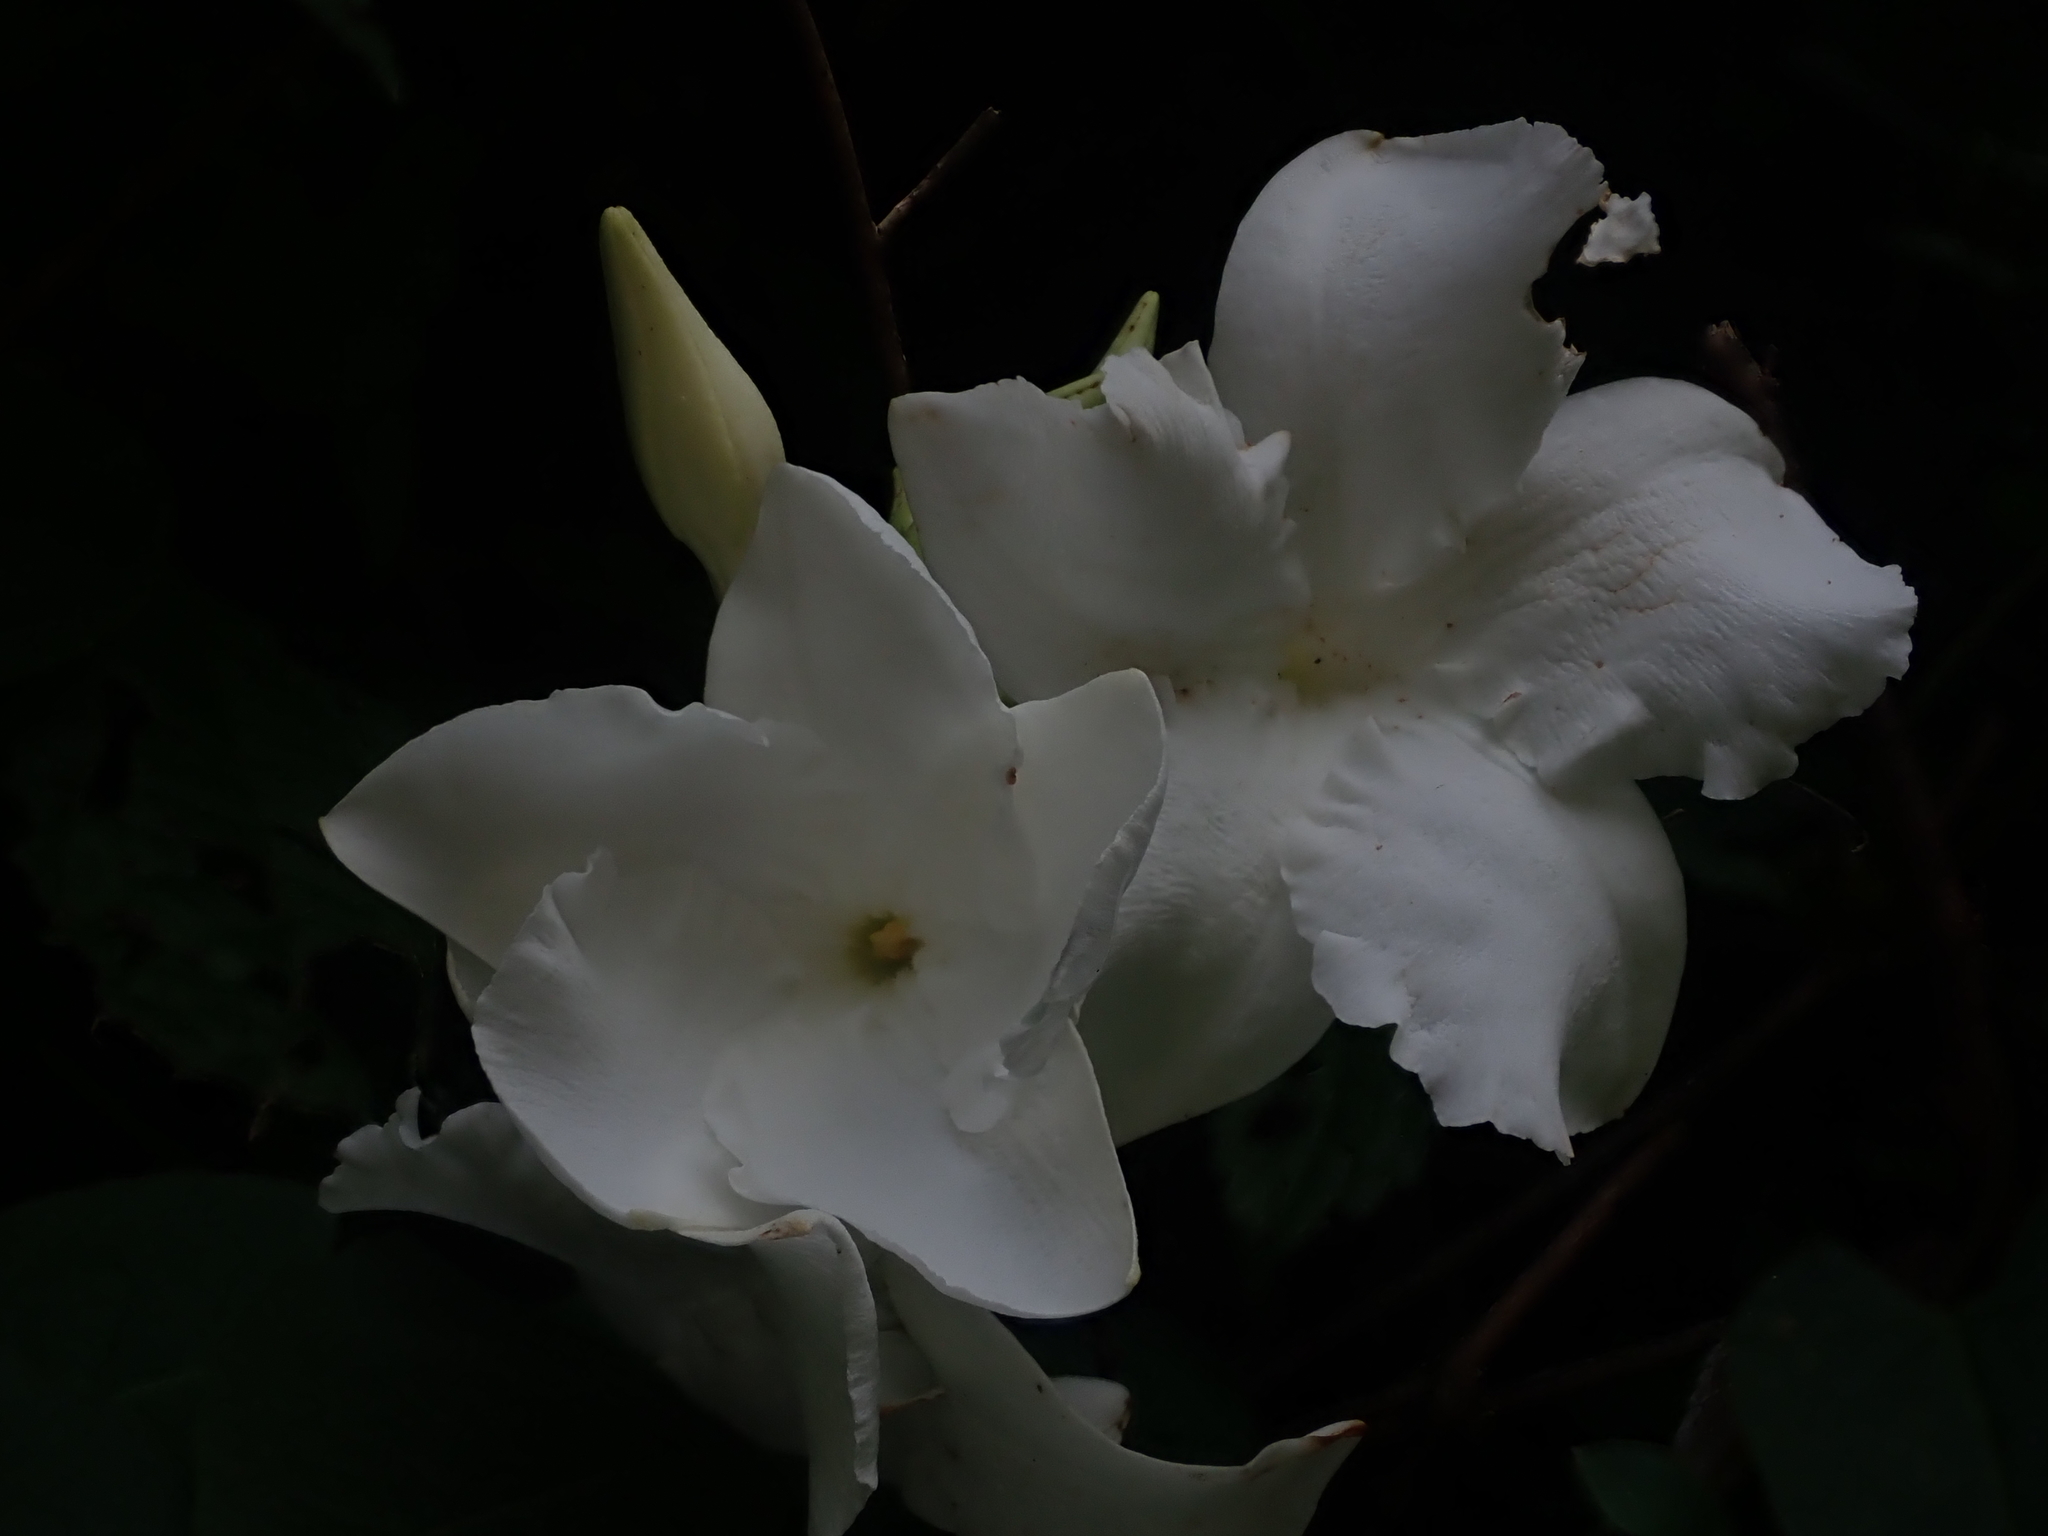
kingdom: Plantae
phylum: Tracheophyta
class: Magnoliopsida
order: Gentianales
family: Apocynaceae
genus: Mandevilla
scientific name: Mandevilla laxa
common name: Chilean-jasmine
